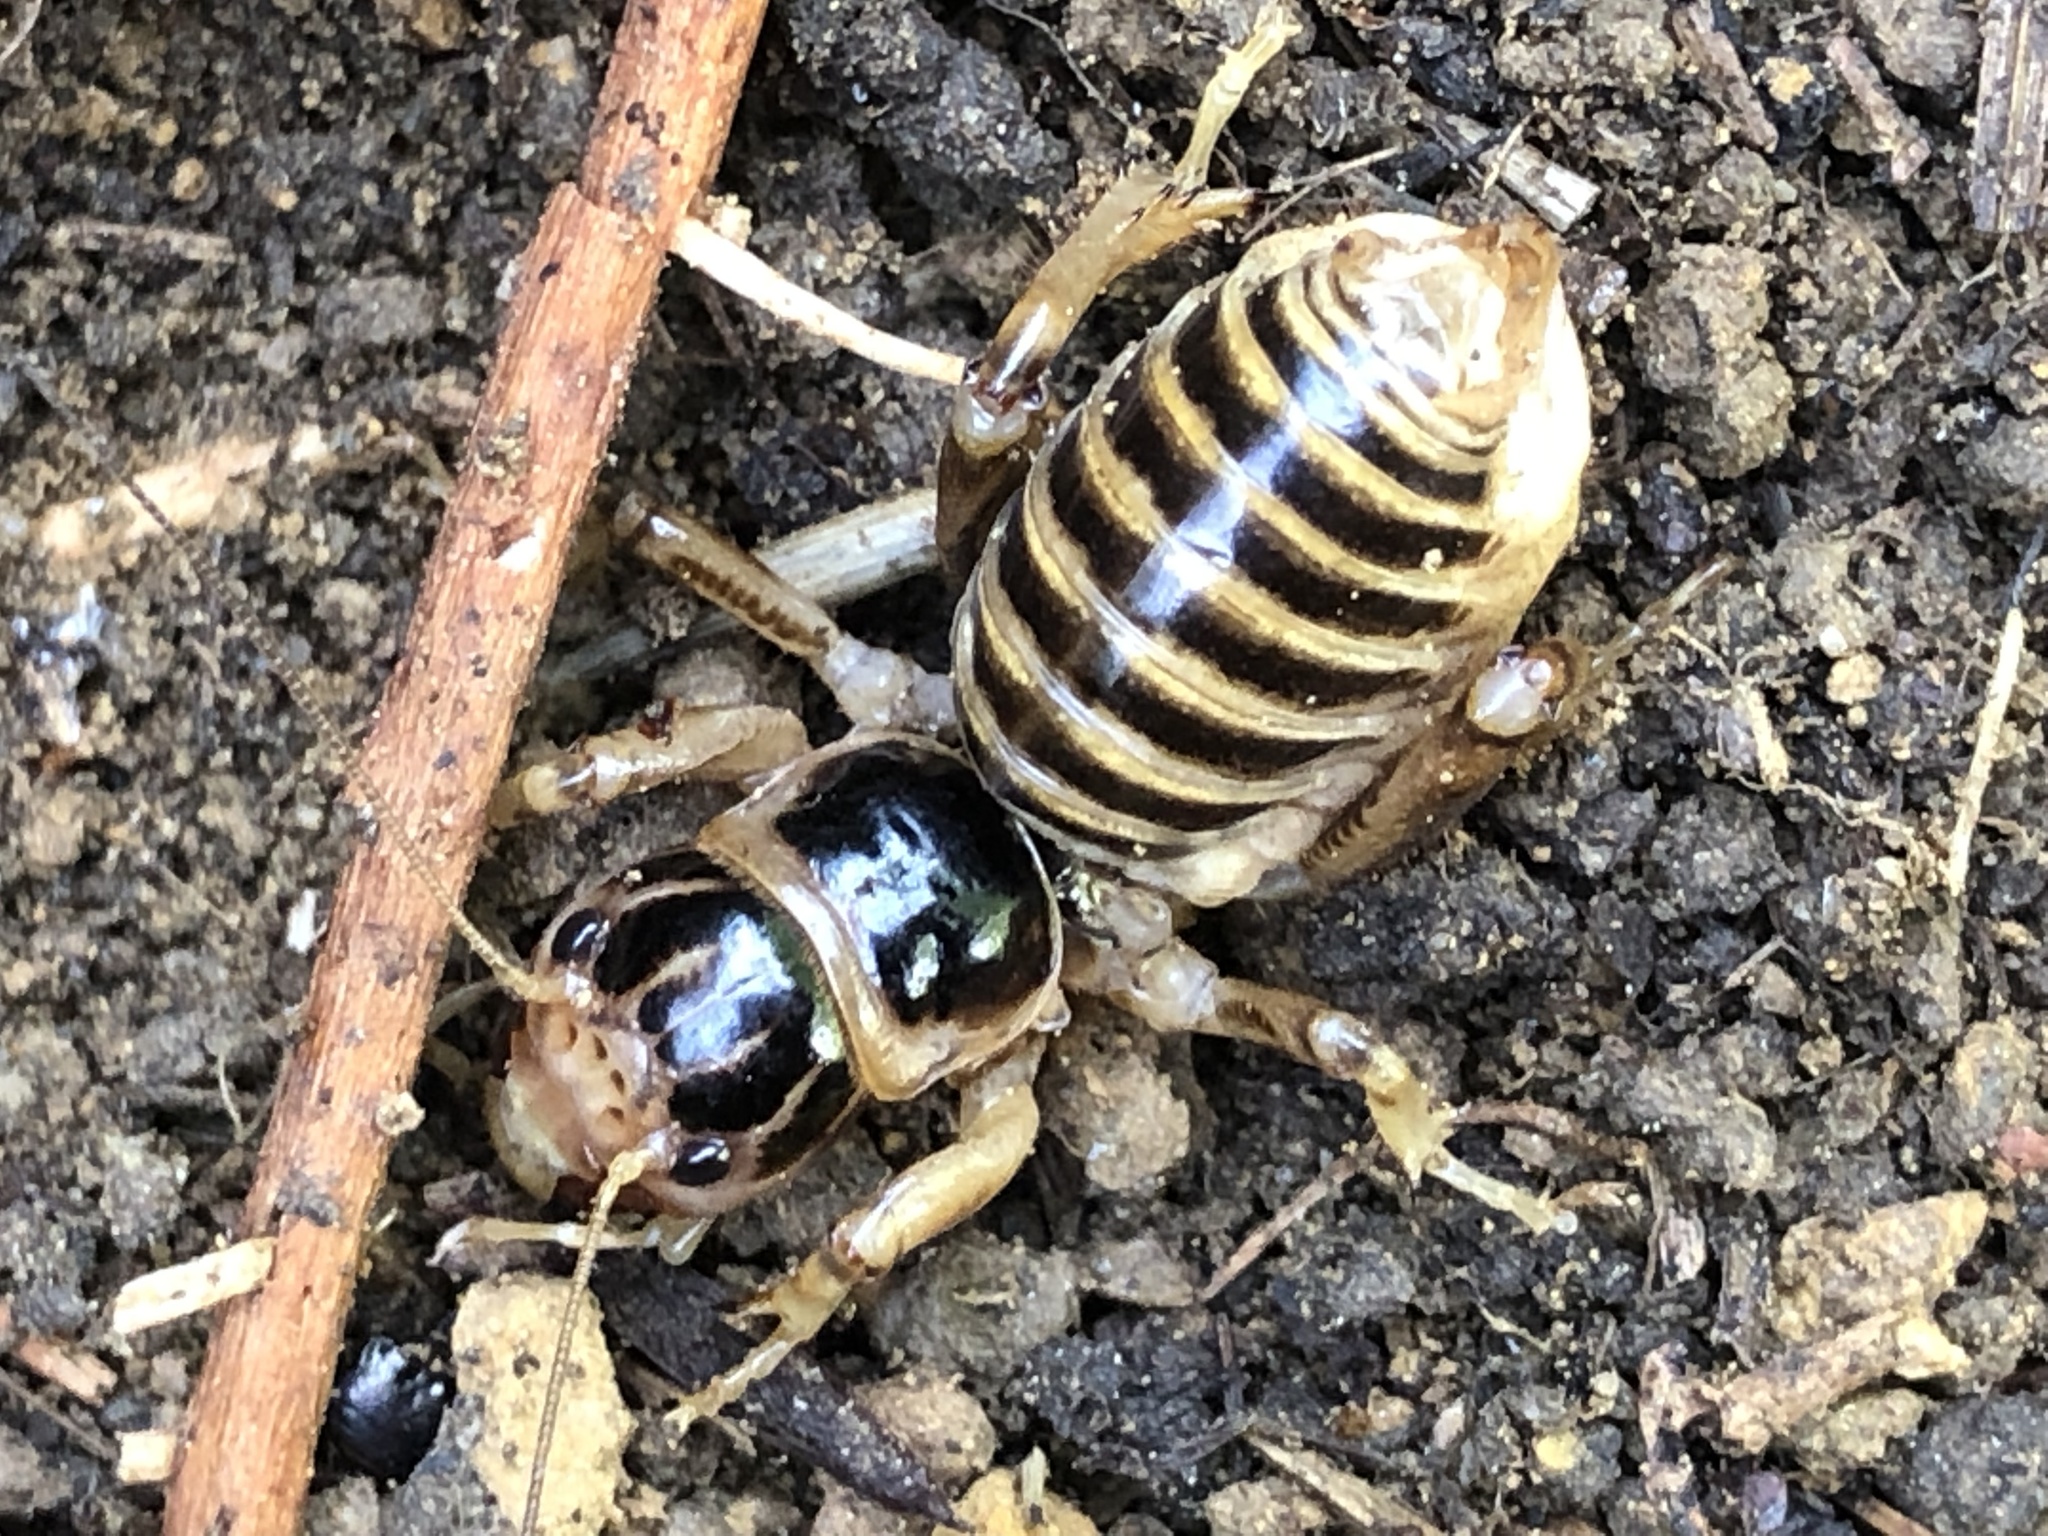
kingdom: Animalia
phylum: Arthropoda
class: Insecta
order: Orthoptera
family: Stenopelmatidae
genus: Ammopelmatus
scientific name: Ammopelmatus pictus
